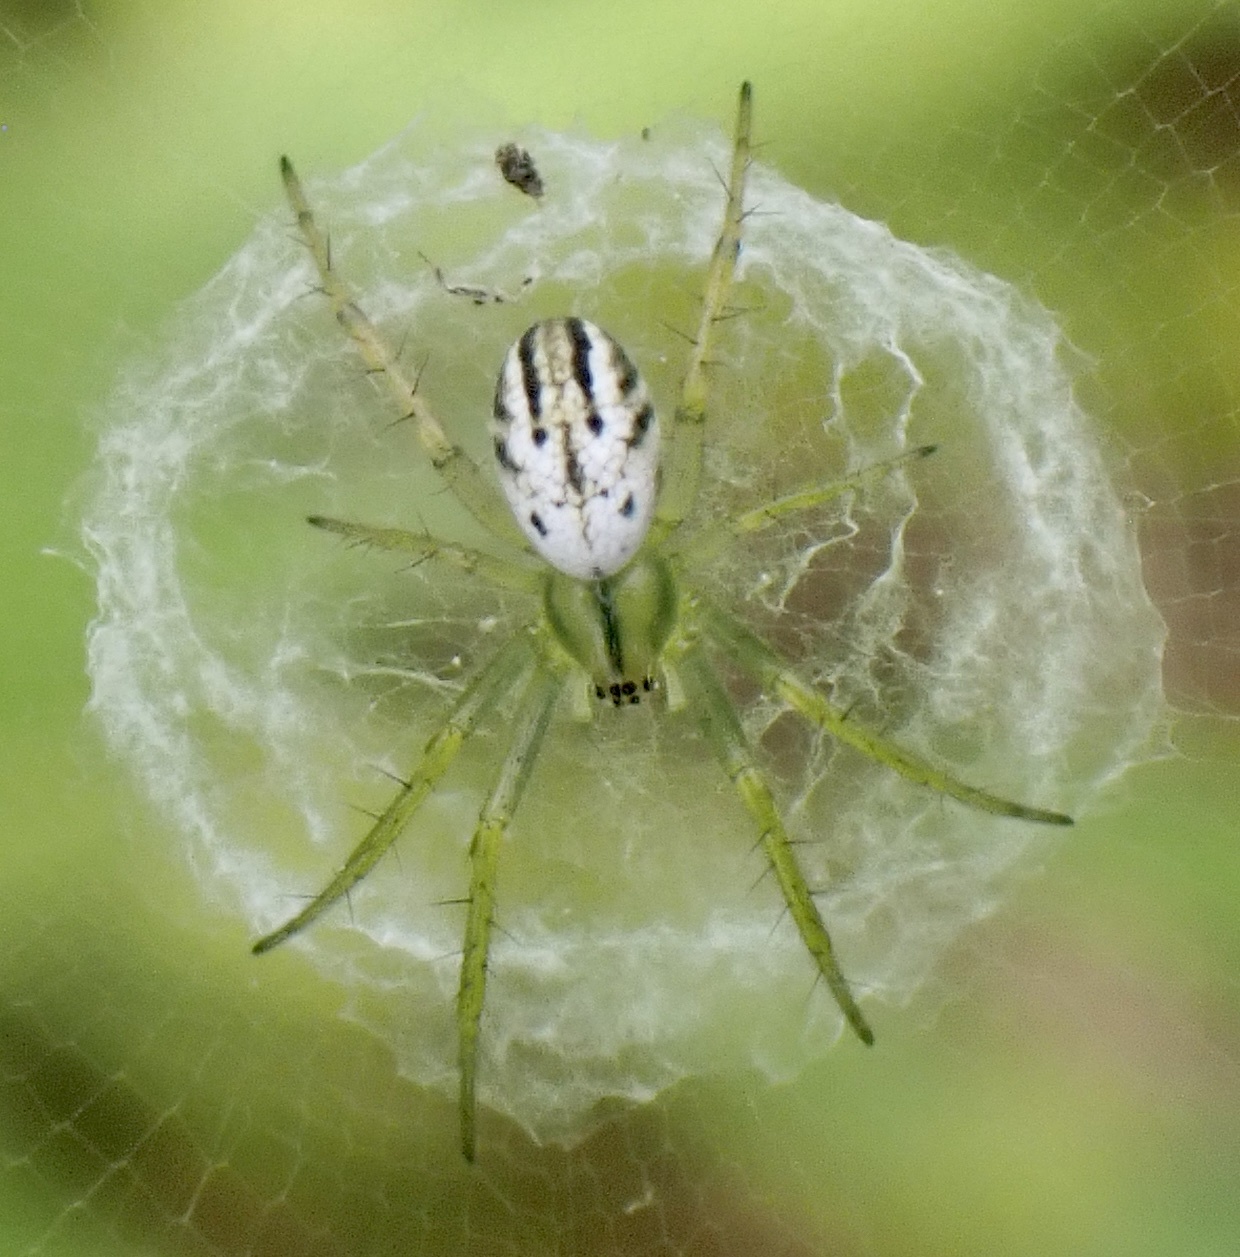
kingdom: Animalia
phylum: Arthropoda
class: Arachnida
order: Araneae
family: Araneidae
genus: Mangora
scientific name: Mangora gibberosa
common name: Lined orbweaver
